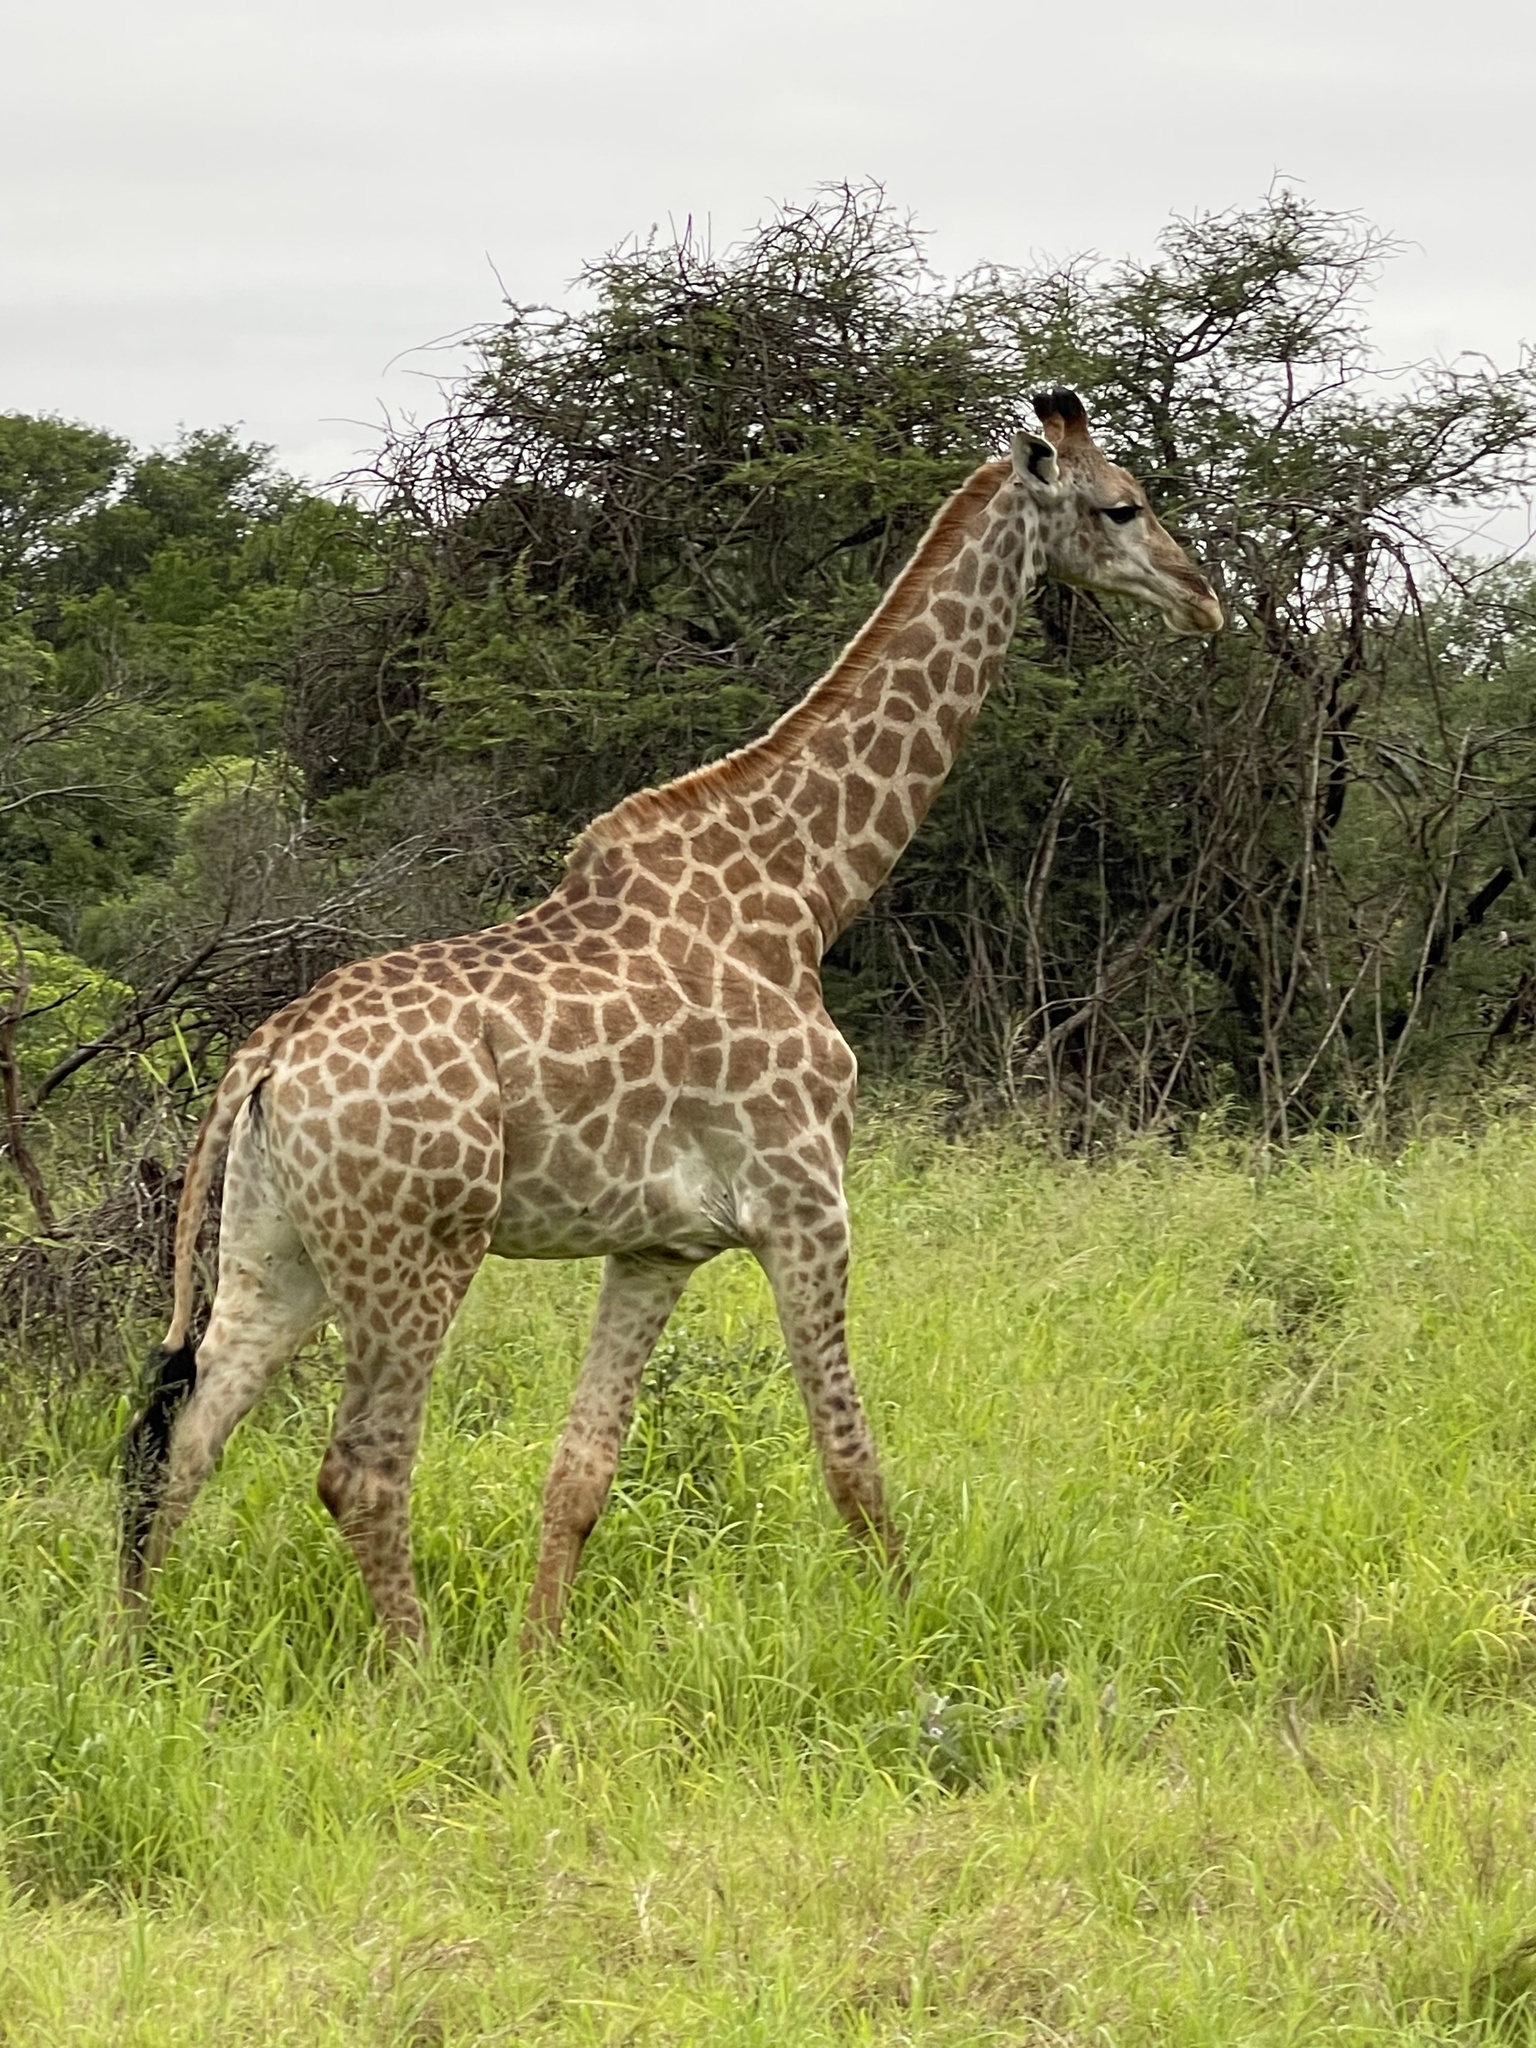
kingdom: Animalia
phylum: Chordata
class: Mammalia
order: Artiodactyla
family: Giraffidae
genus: Giraffa
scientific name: Giraffa giraffa
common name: Southern giraffe
